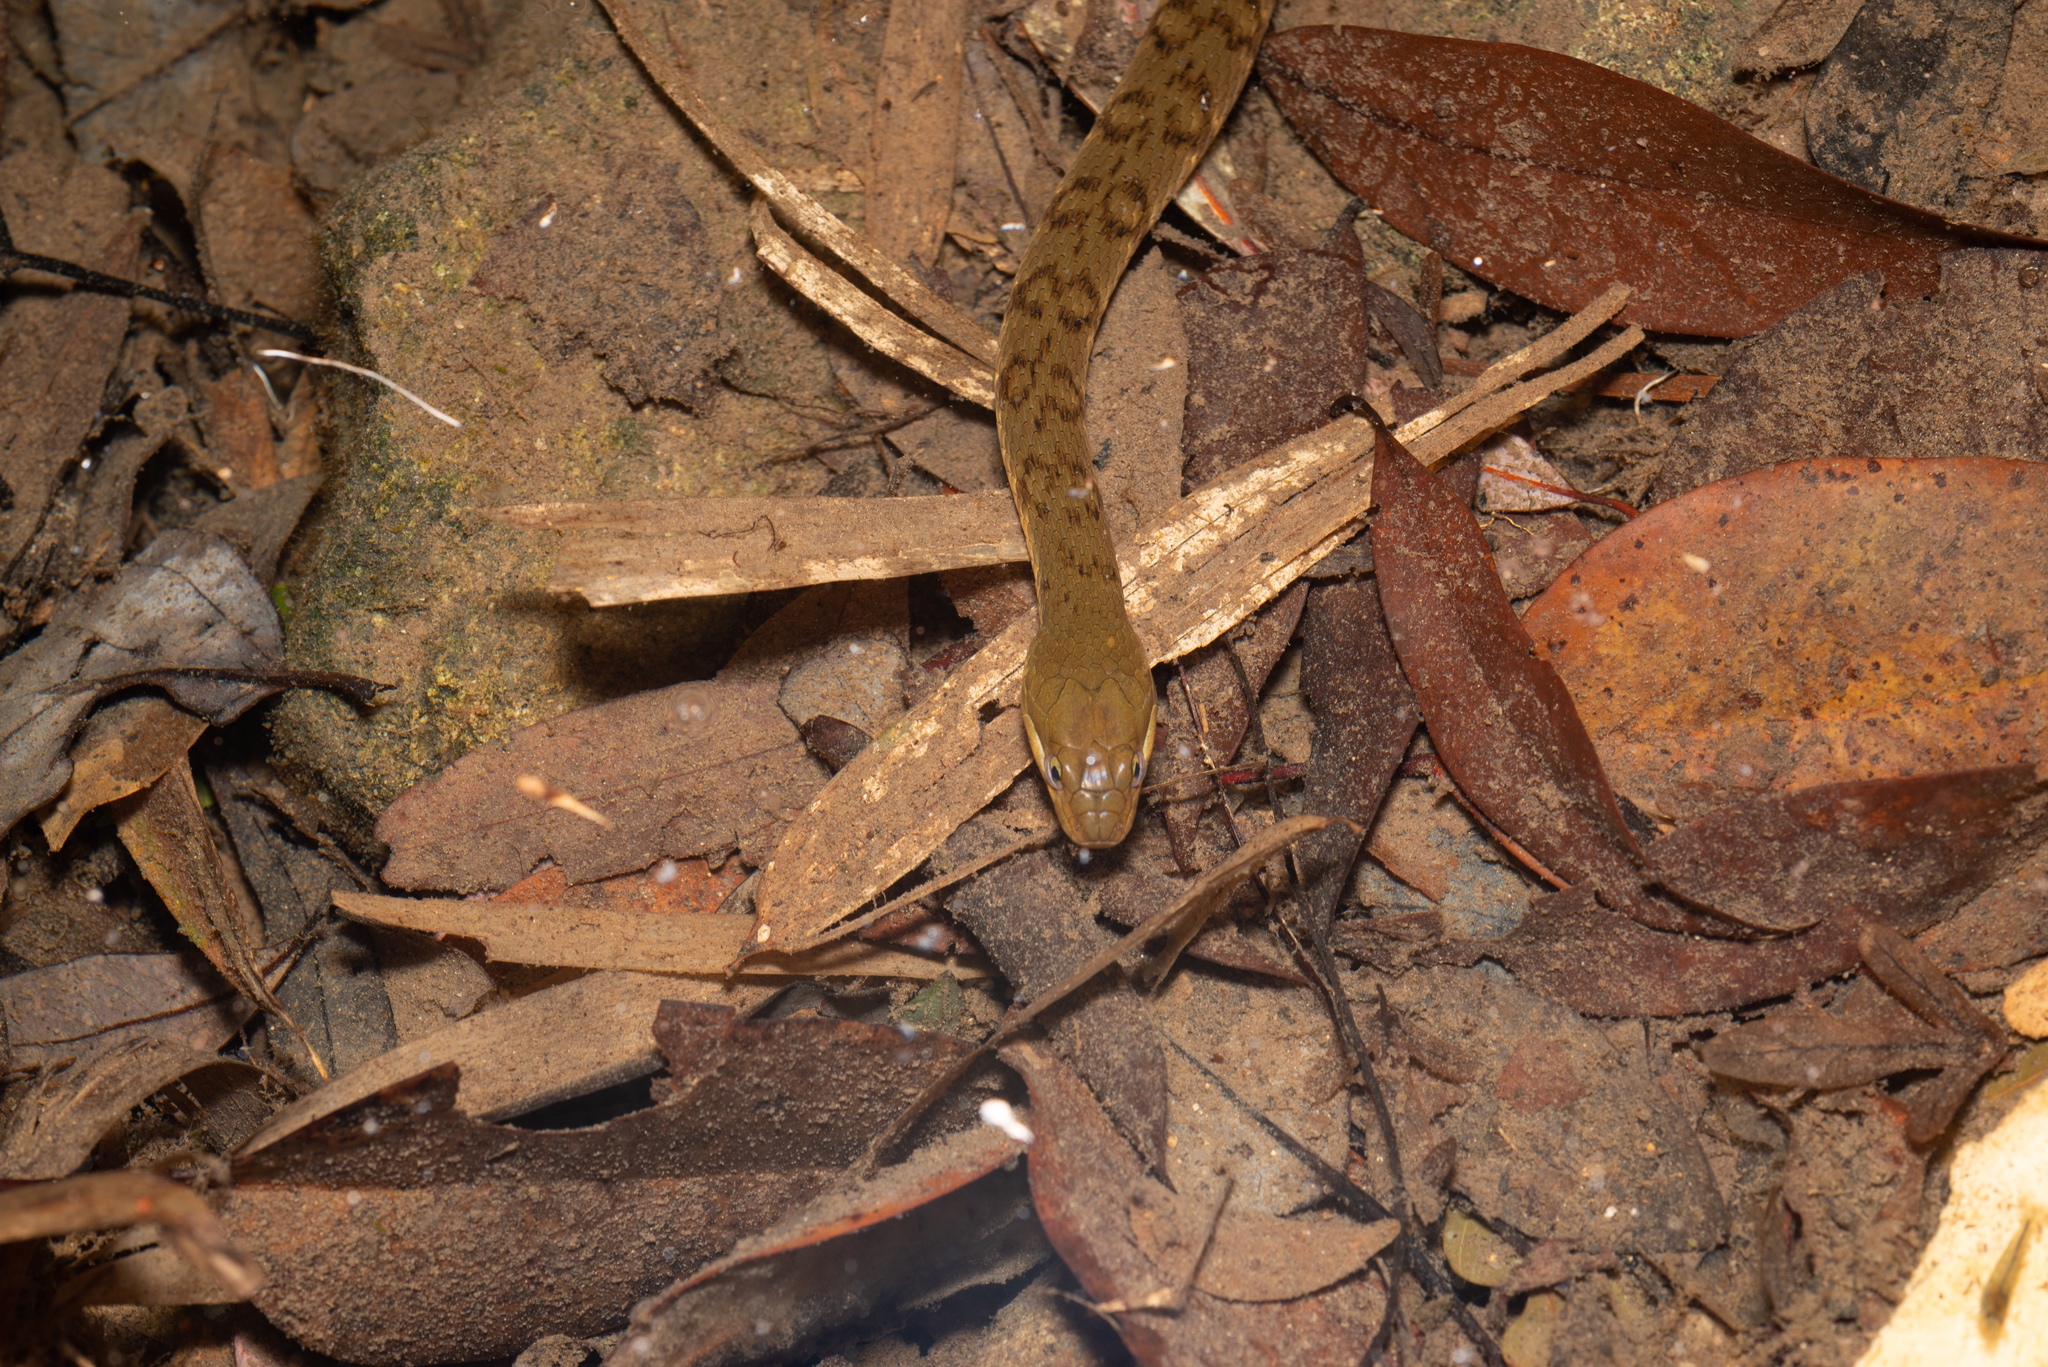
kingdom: Animalia
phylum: Chordata
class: Squamata
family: Colubridae
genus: Trimerodytes
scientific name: Trimerodytes percarinatus
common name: Eastern water snake
